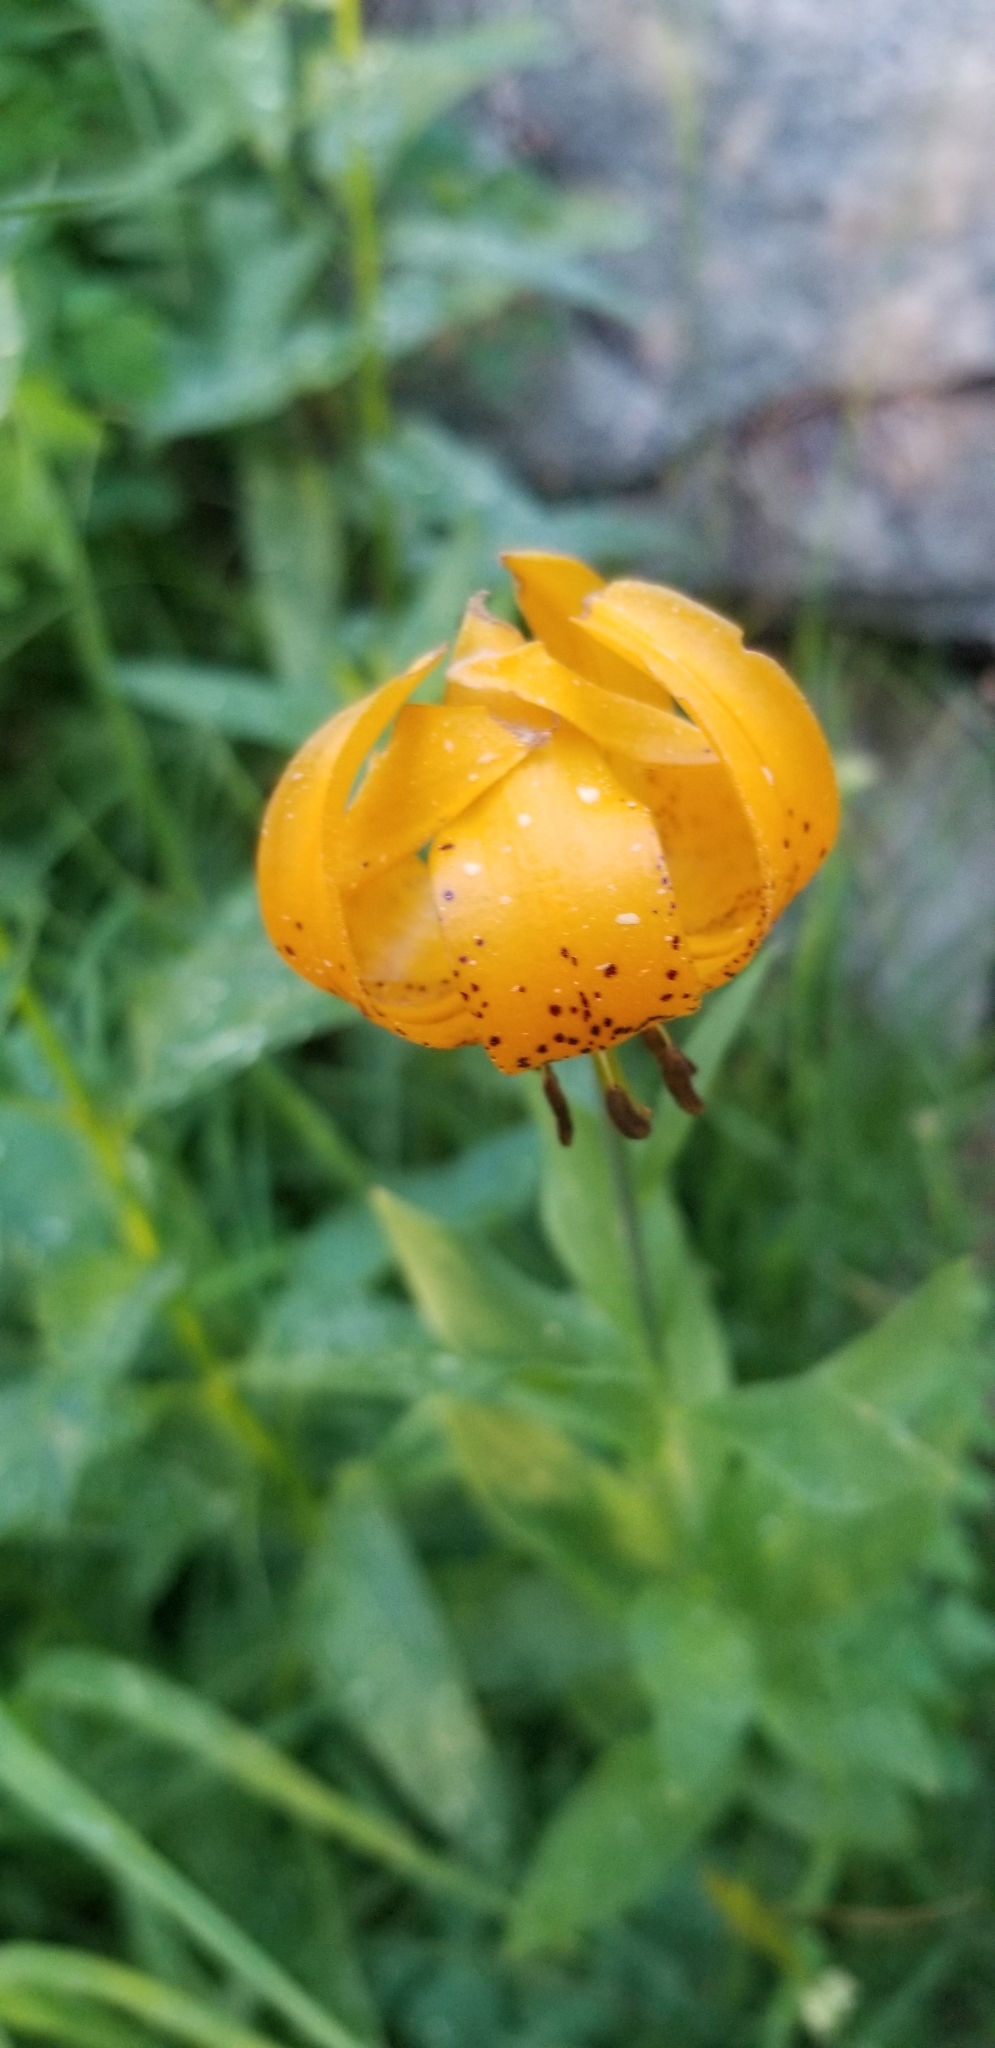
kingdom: Plantae
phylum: Tracheophyta
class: Liliopsida
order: Liliales
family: Liliaceae
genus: Lilium
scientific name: Lilium kelleyanum
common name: Kelley's lily
